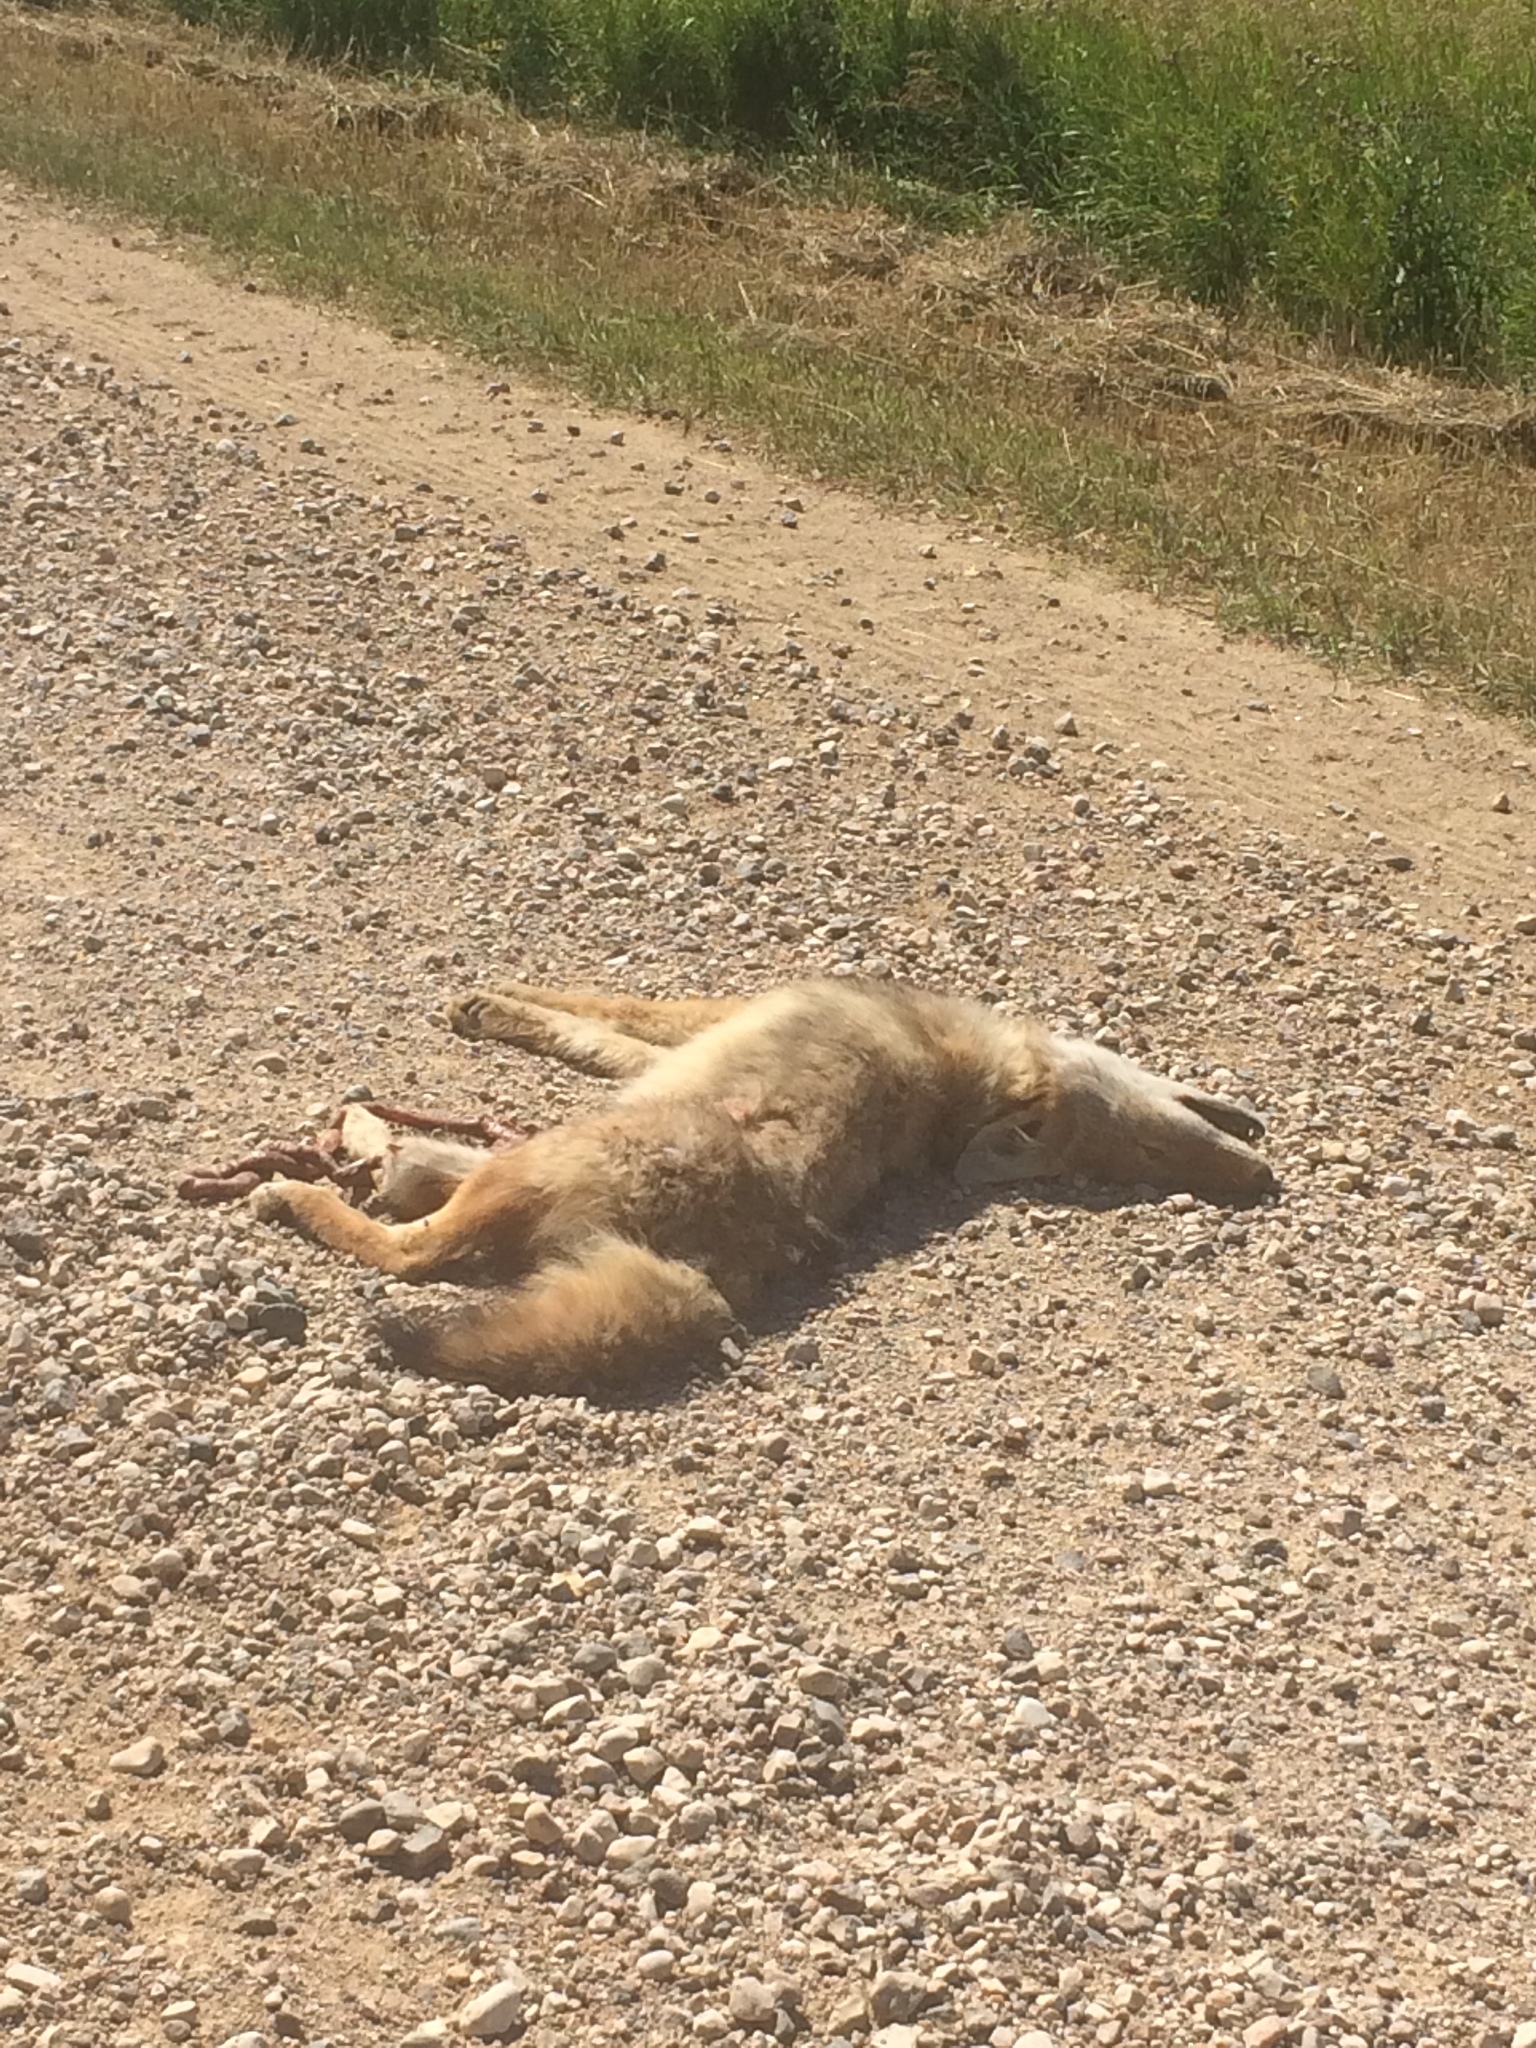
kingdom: Animalia
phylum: Chordata
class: Mammalia
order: Carnivora
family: Canidae
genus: Canis
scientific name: Canis latrans
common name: Coyote
